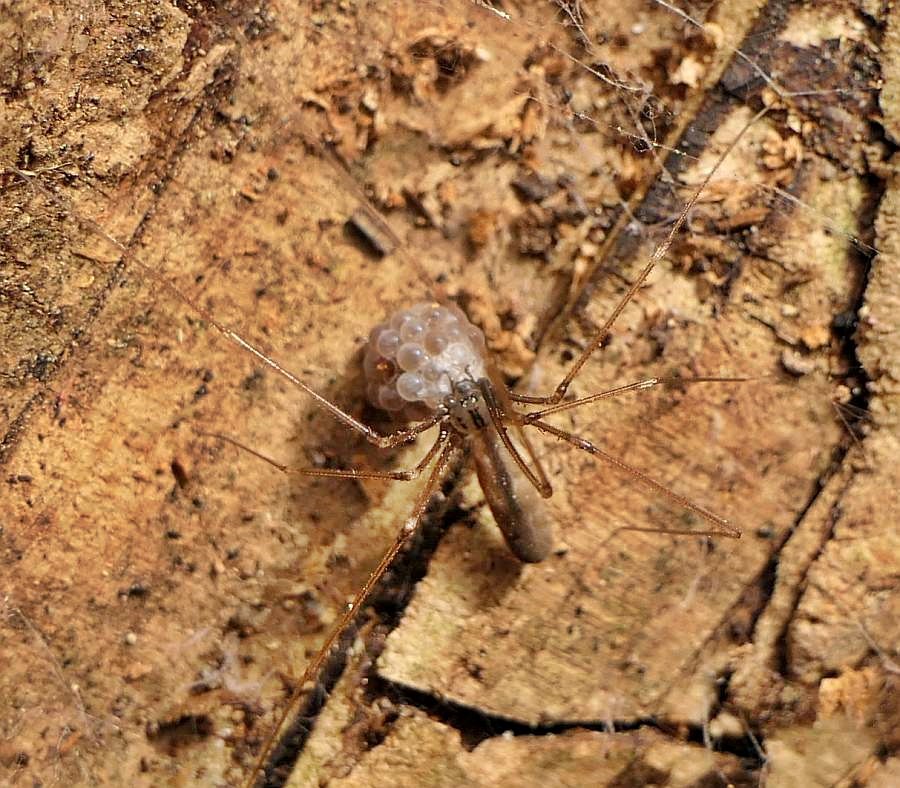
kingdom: Animalia
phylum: Arthropoda
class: Arachnida
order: Araneae
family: Pholcidae
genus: Pholcus
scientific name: Pholcus opilionoides
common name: Daddylongleg spider
